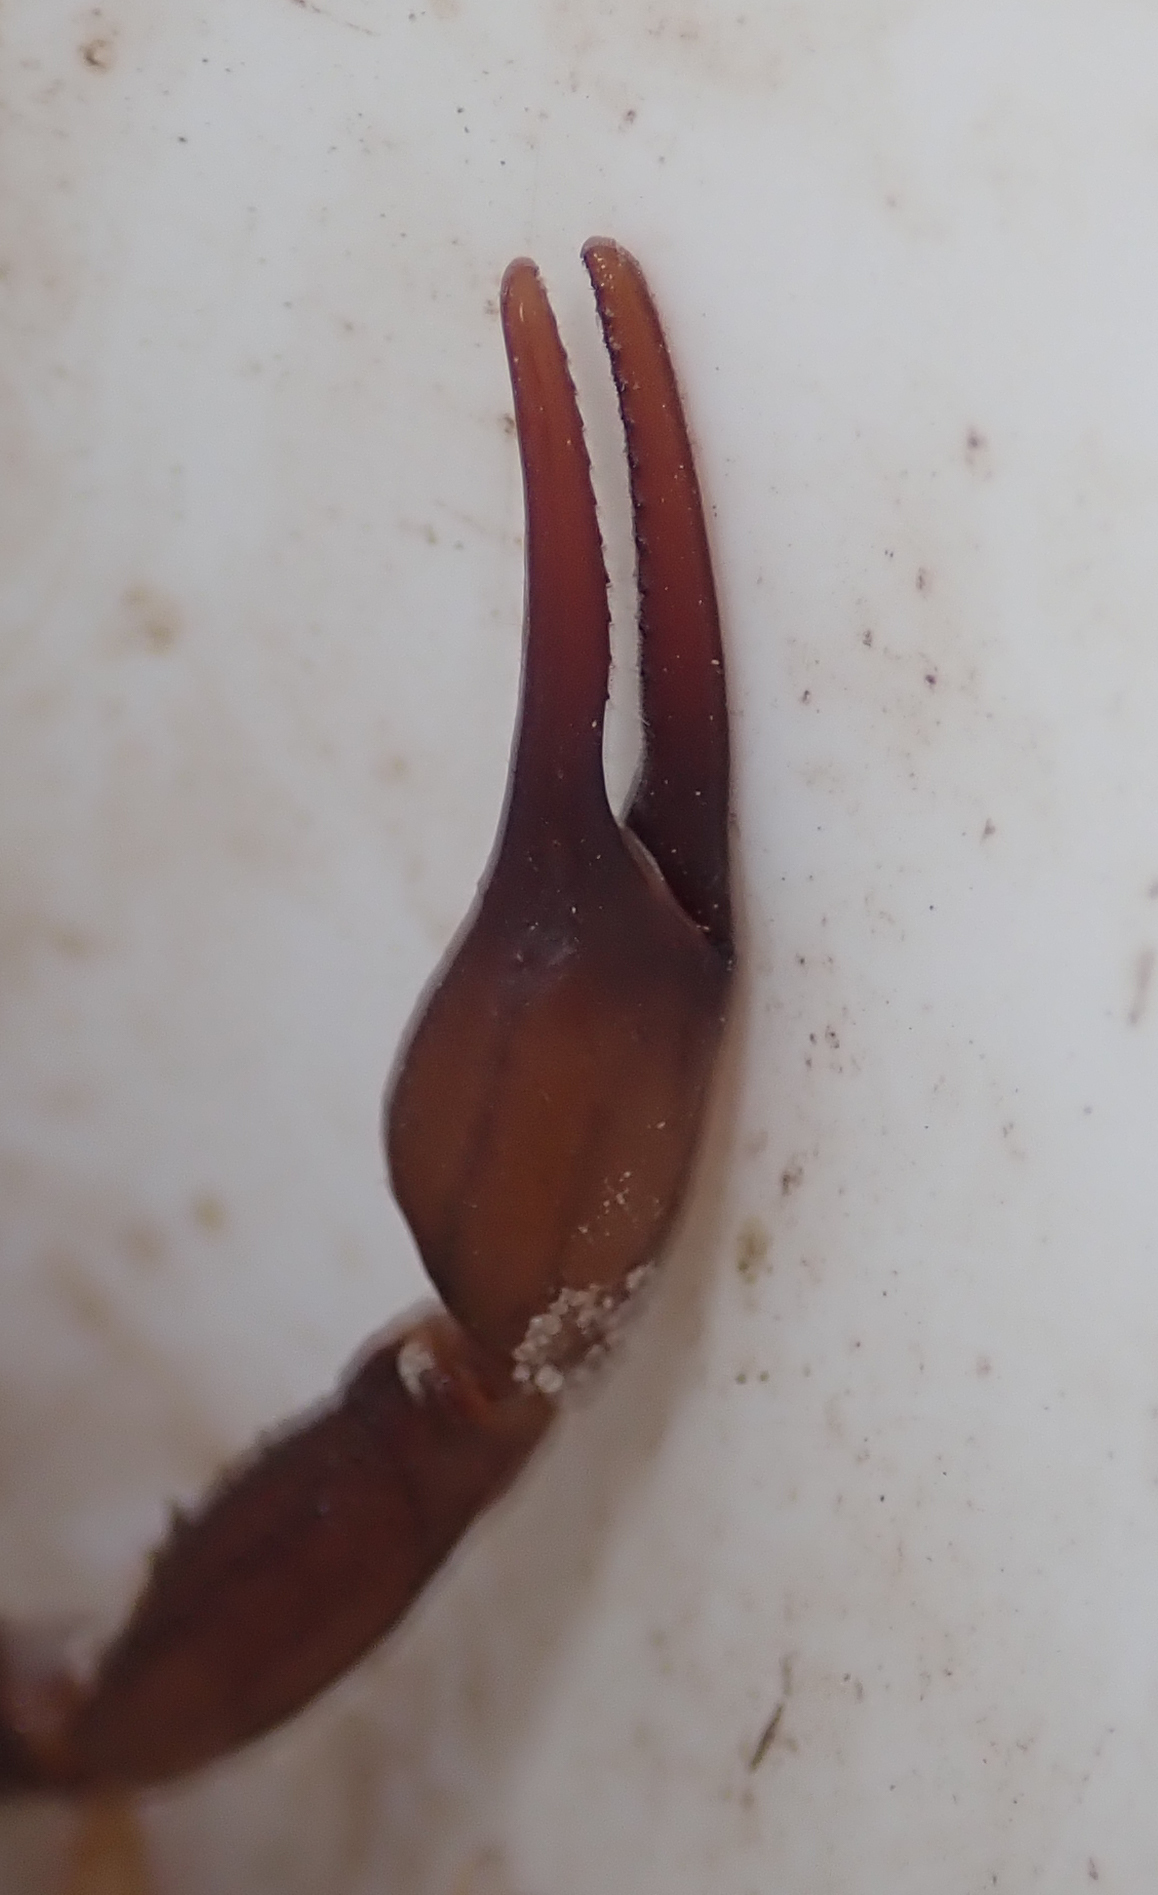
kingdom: Animalia
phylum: Arthropoda
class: Arachnida
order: Scorpiones
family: Buthidae
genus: Parabuthus
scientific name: Parabuthus granulatus
